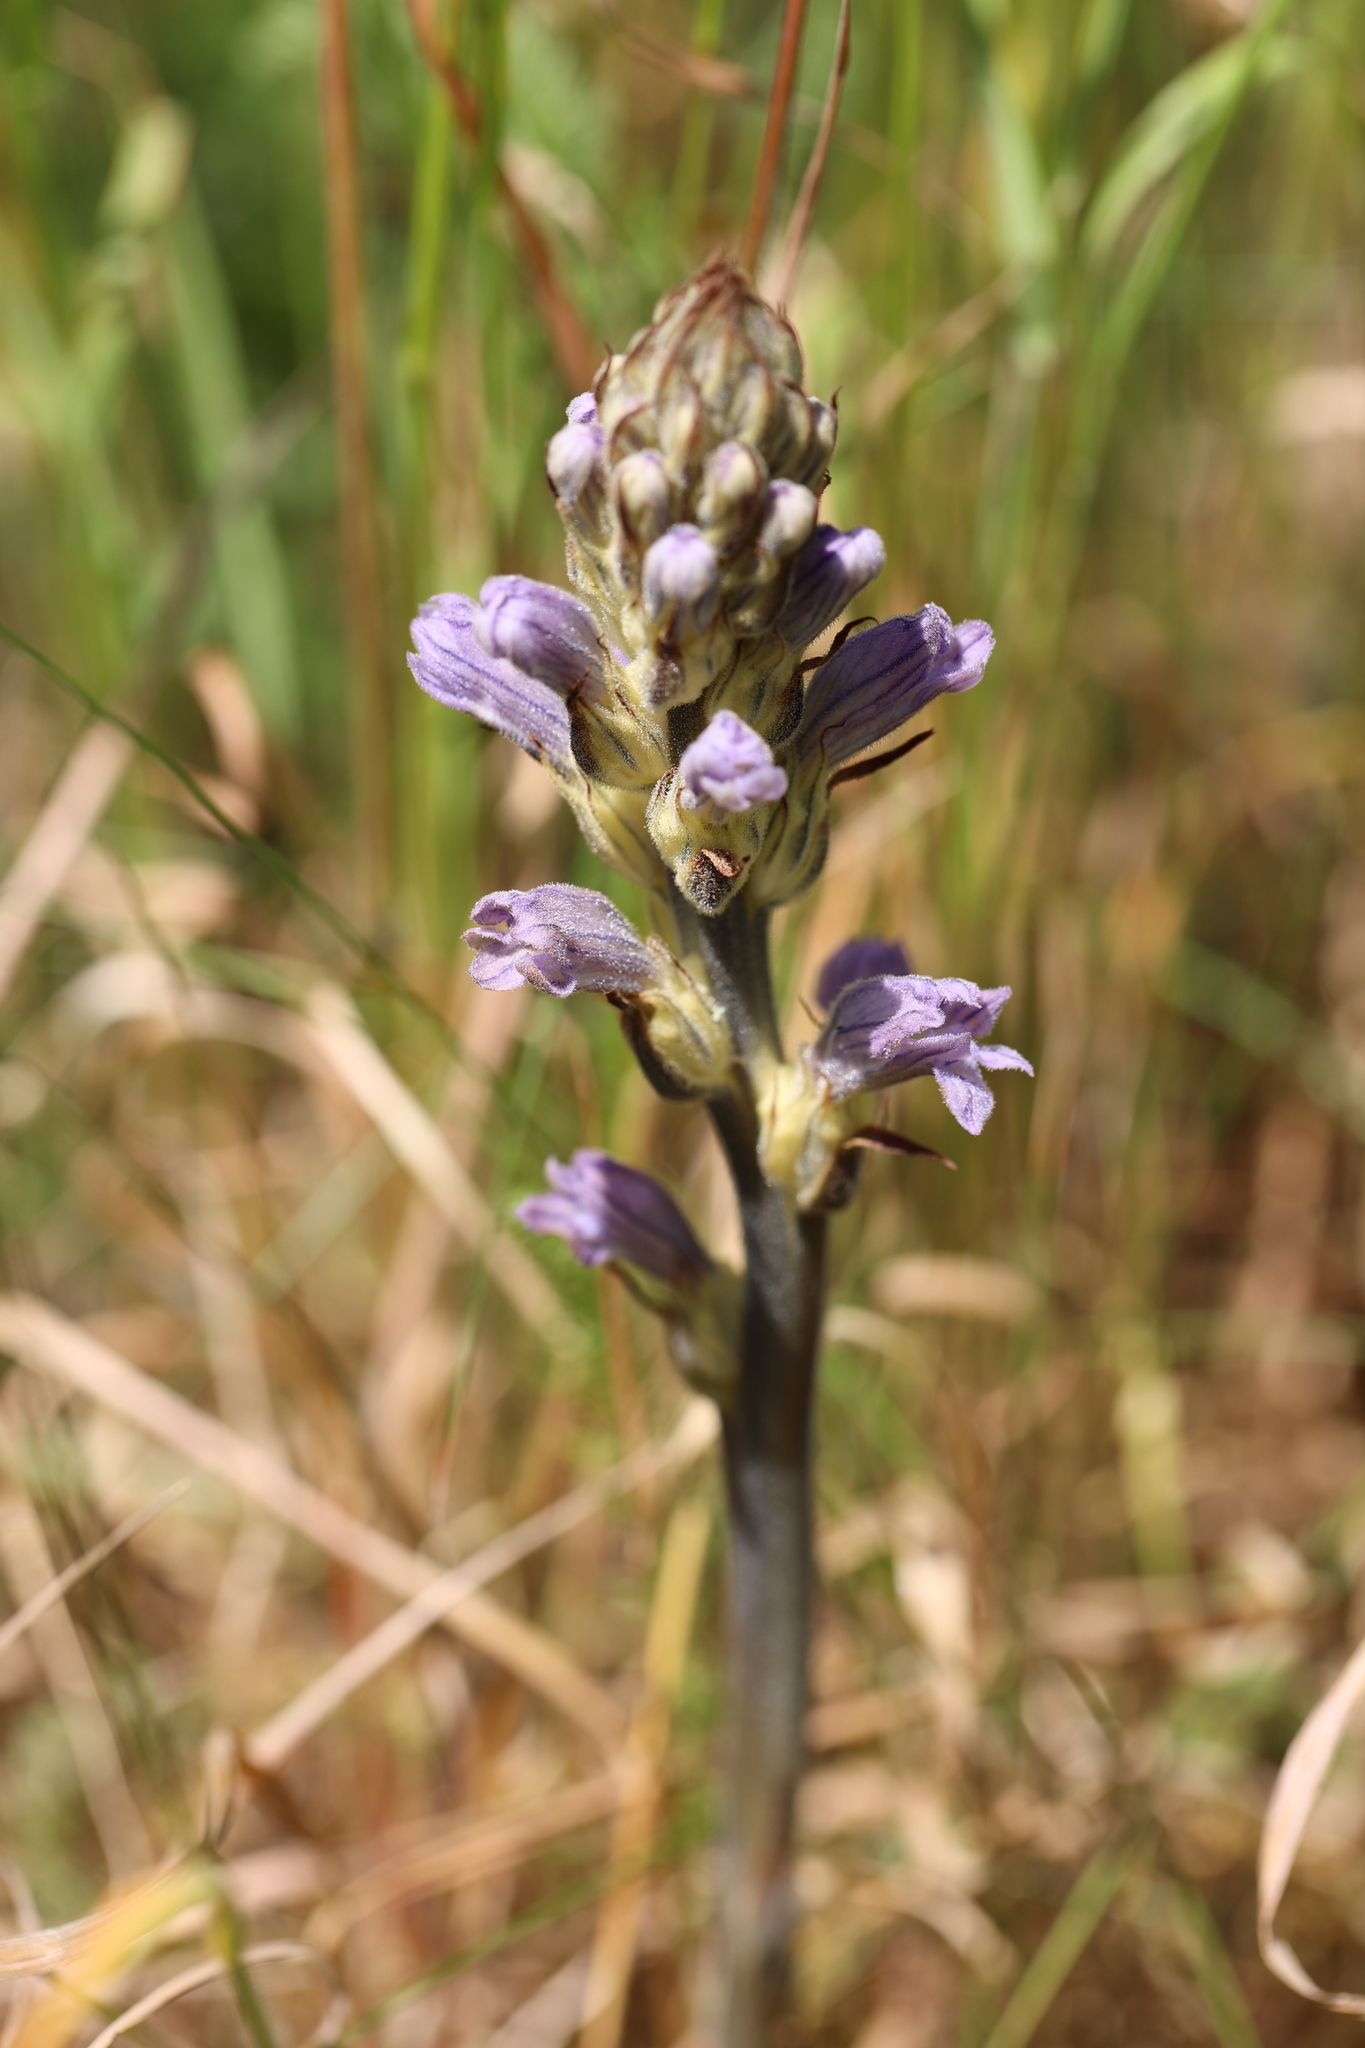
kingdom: Plantae
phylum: Tracheophyta
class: Magnoliopsida
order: Lamiales
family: Orobanchaceae
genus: Phelipanche
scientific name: Phelipanche purpurea
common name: Purple broomrape
